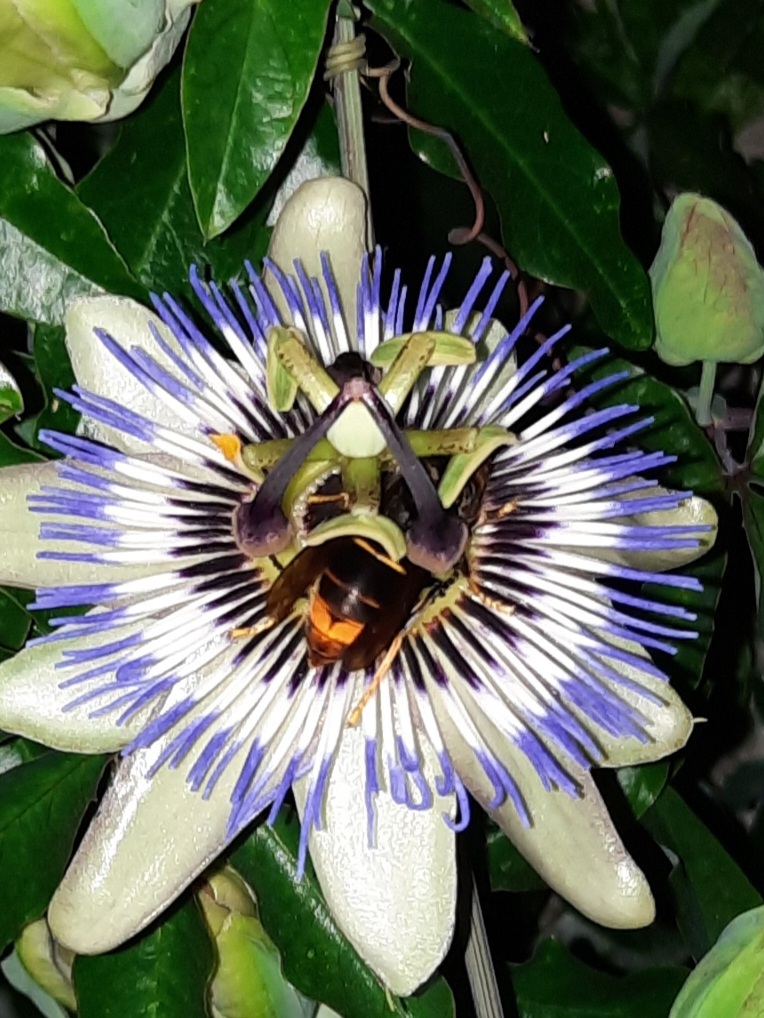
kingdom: Animalia
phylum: Arthropoda
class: Insecta
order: Hymenoptera
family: Vespidae
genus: Vespa
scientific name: Vespa velutina
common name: Asian hornet
